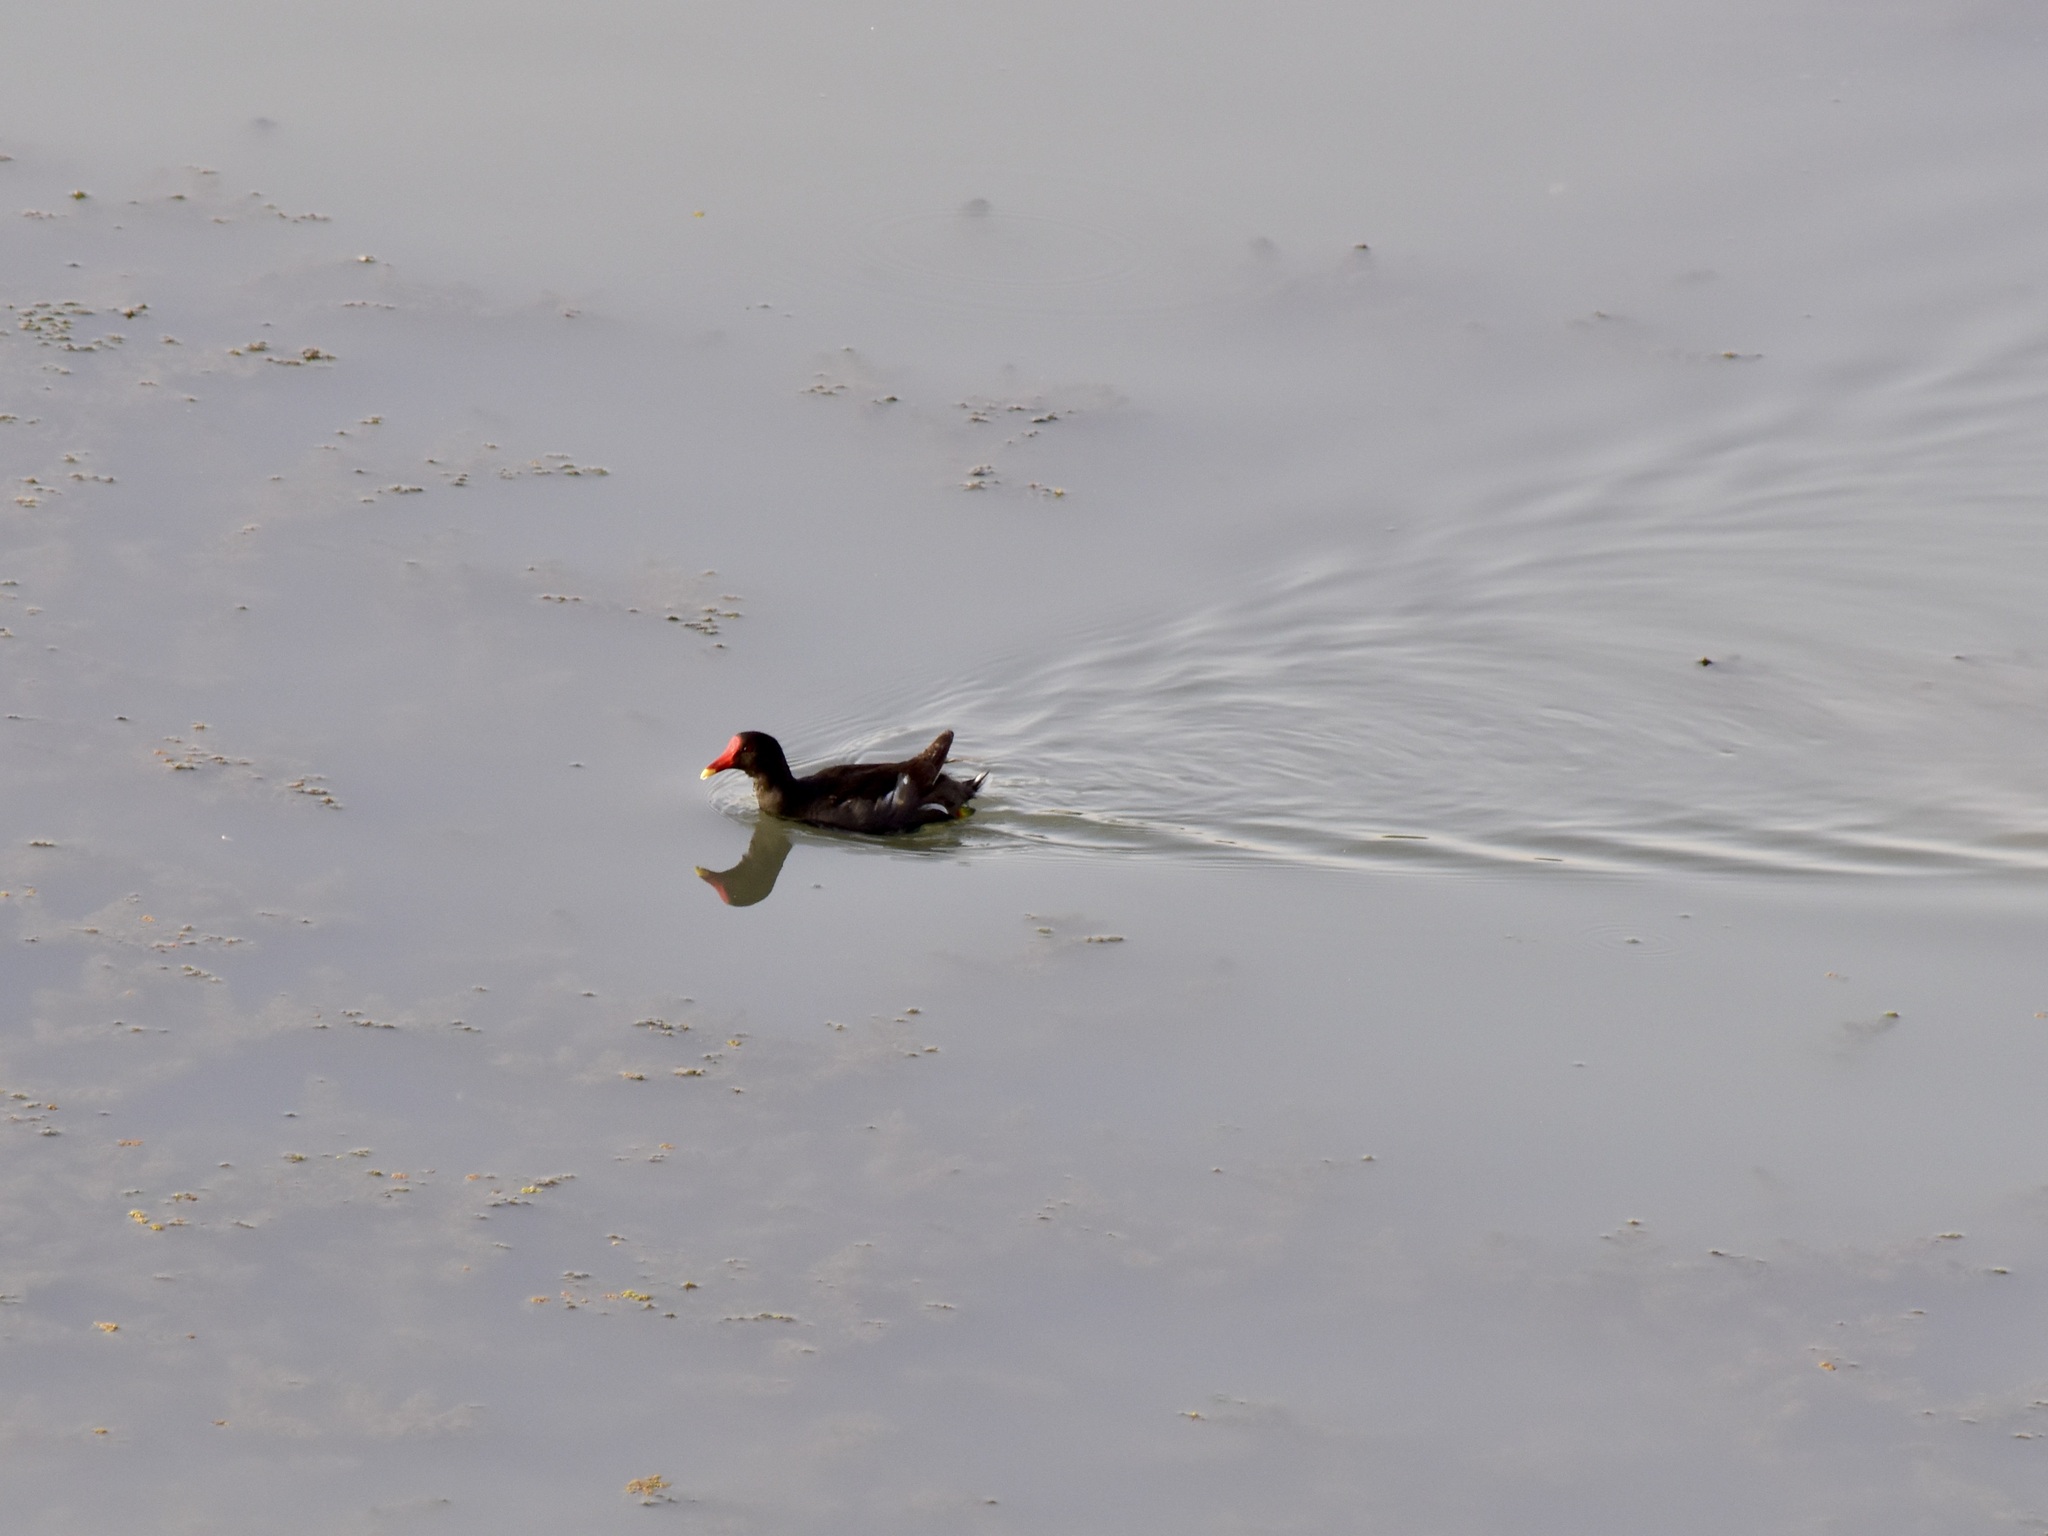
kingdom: Animalia
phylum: Chordata
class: Aves
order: Gruiformes
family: Rallidae
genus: Gallinula
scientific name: Gallinula chloropus
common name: Common moorhen
